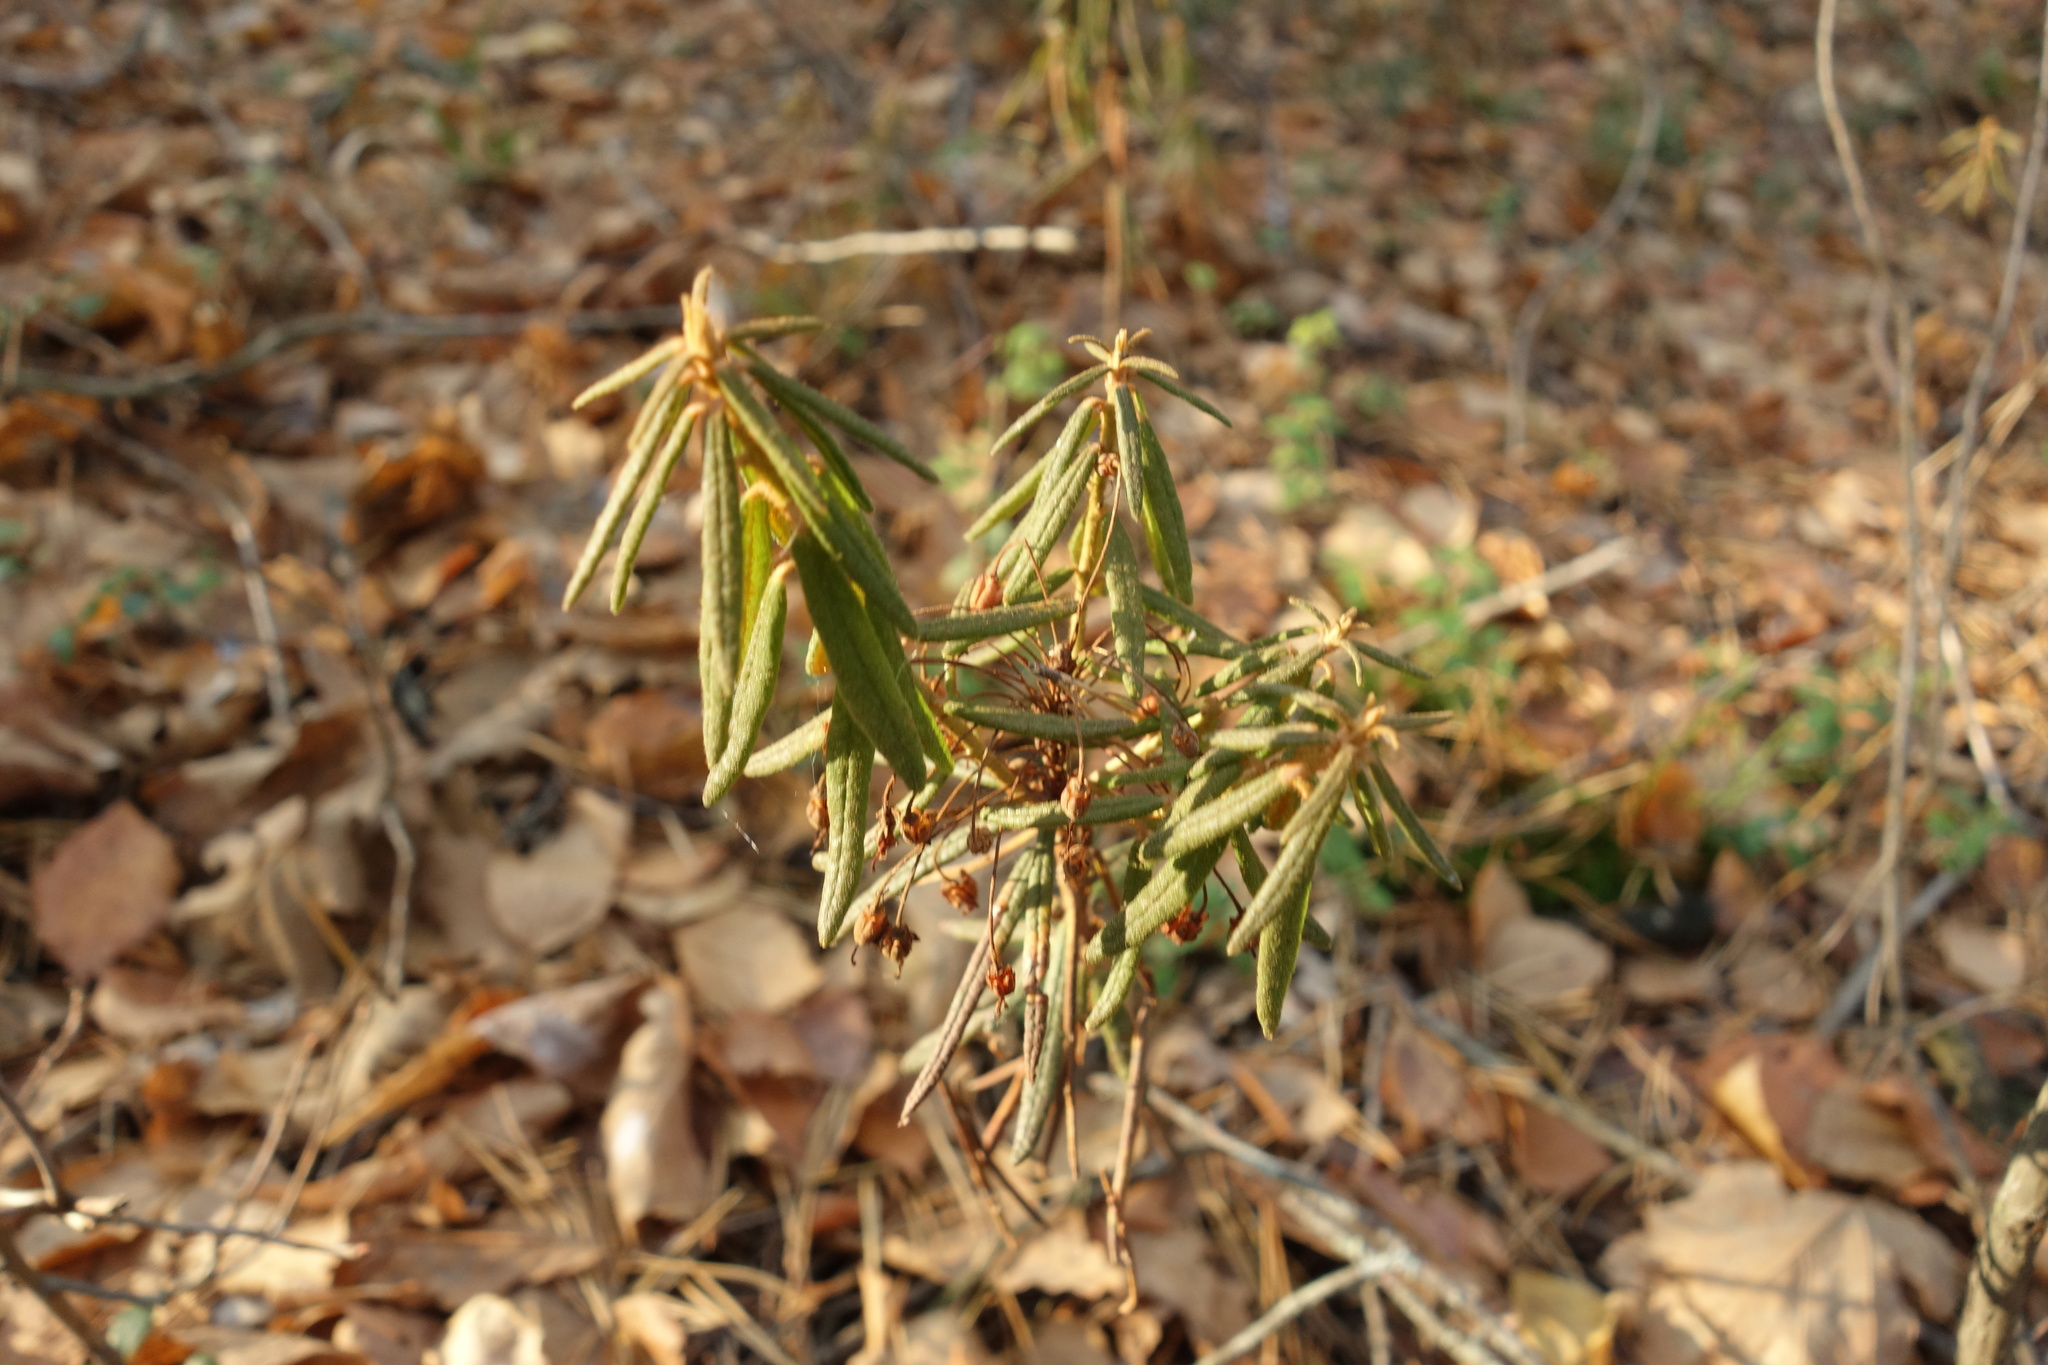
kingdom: Plantae
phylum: Tracheophyta
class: Magnoliopsida
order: Ericales
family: Ericaceae
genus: Rhododendron
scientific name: Rhododendron tomentosum
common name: Marsh labrador tea
